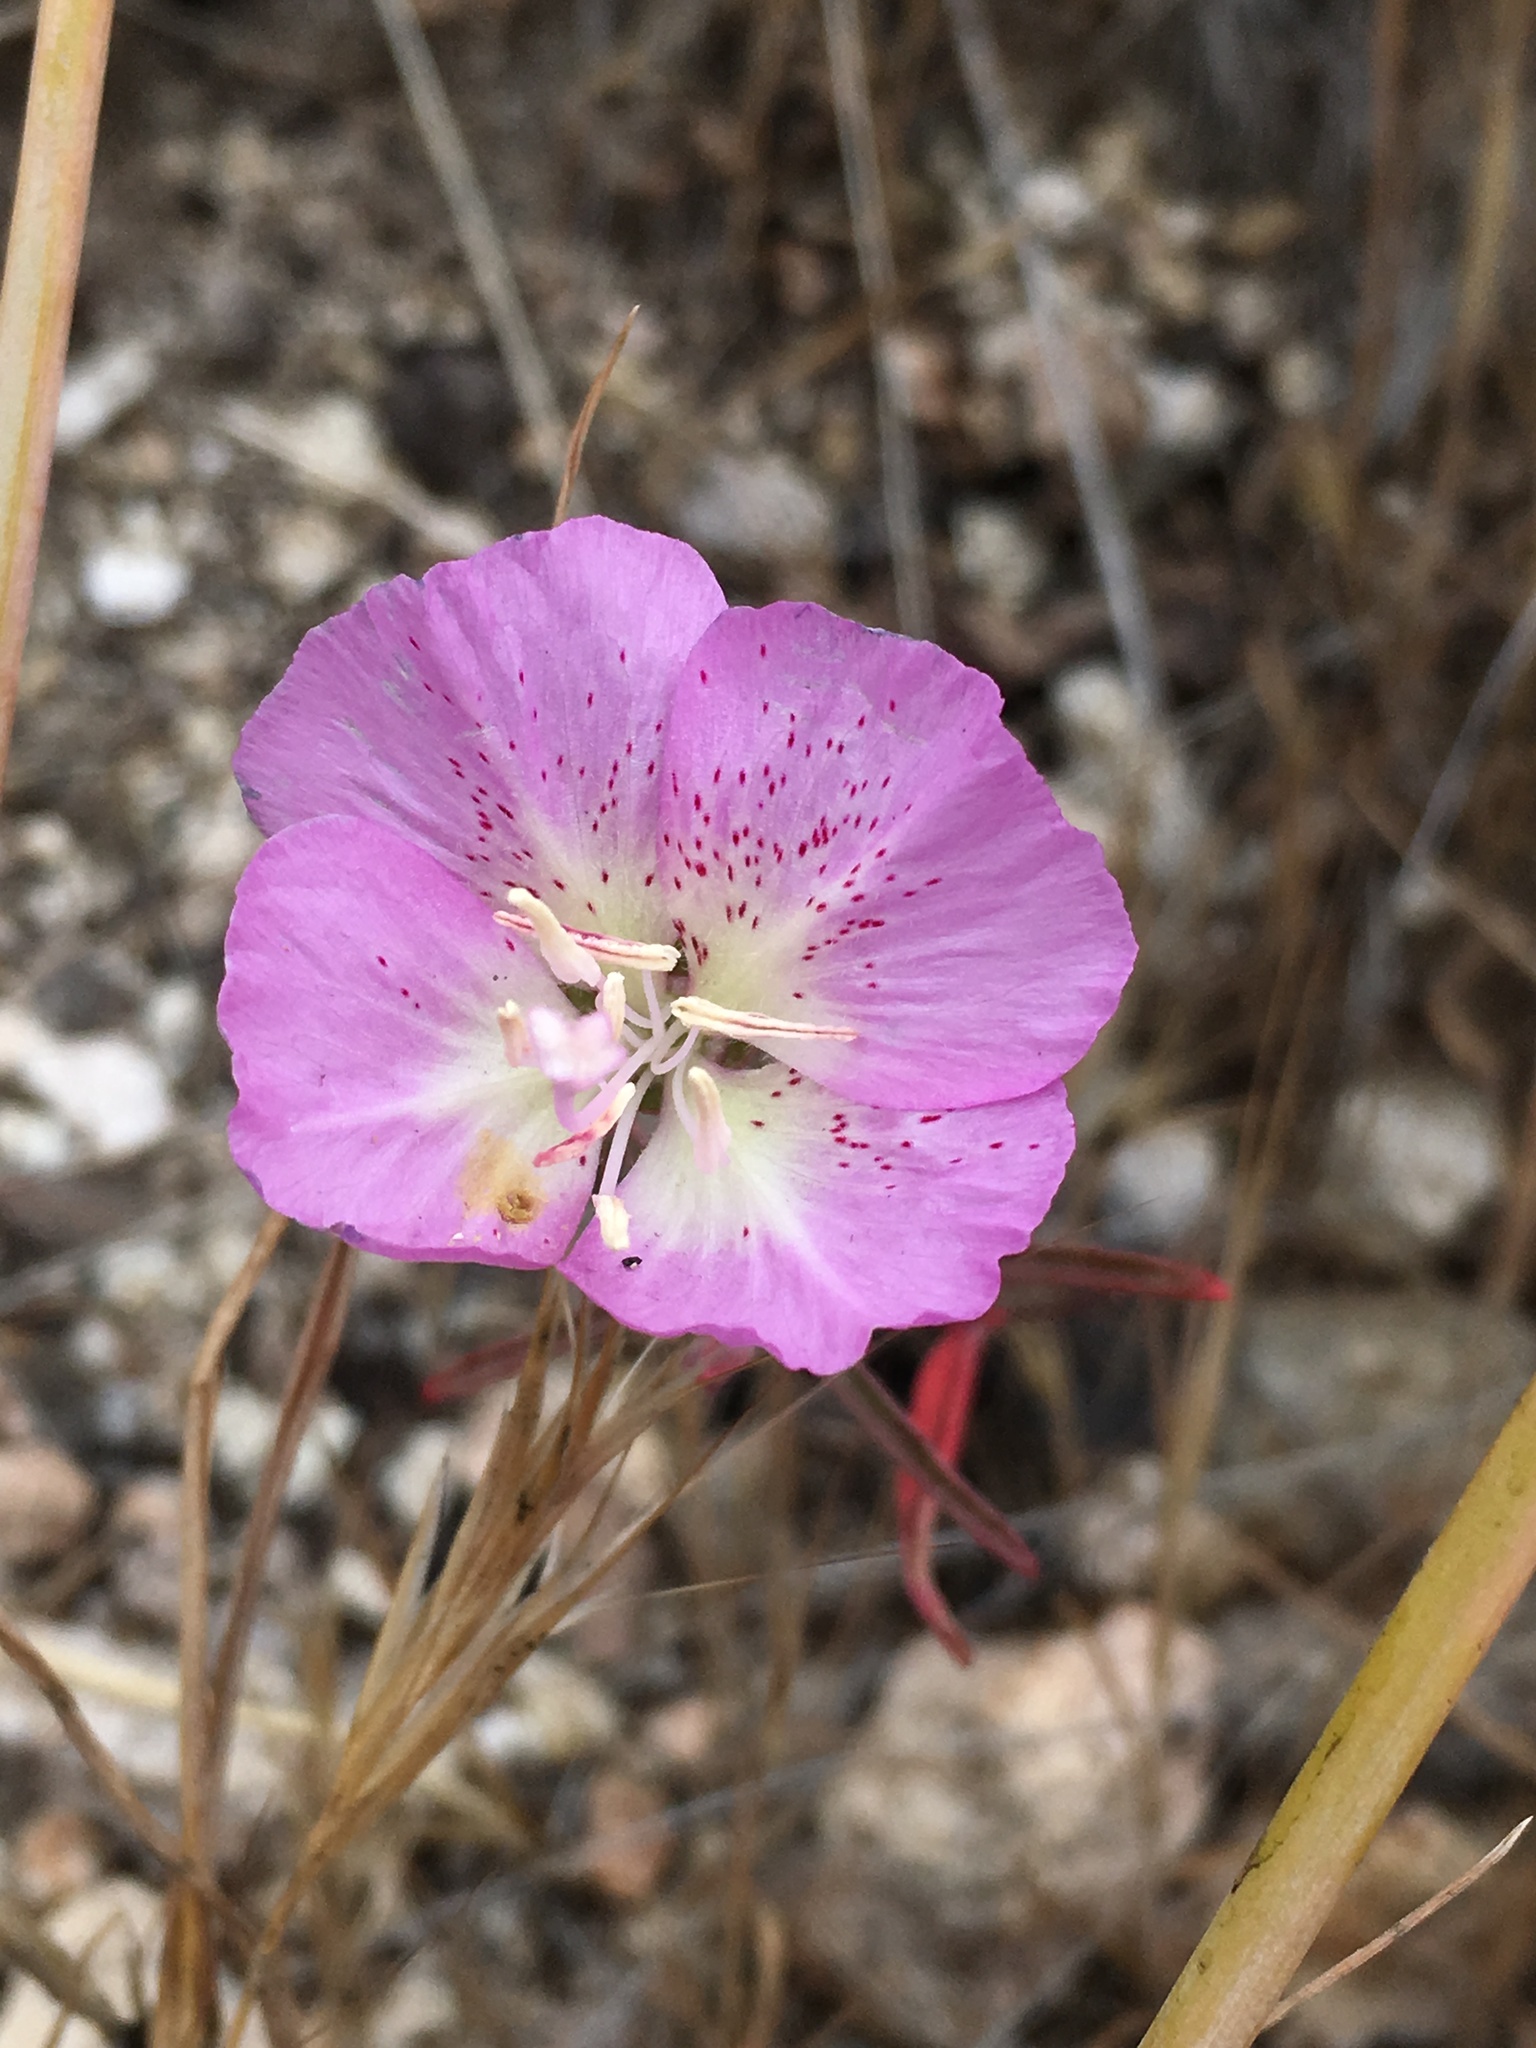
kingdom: Plantae
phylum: Tracheophyta
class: Magnoliopsida
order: Myrtales
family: Onagraceae
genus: Clarkia
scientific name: Clarkia bottae
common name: Punch-bowl godetia
